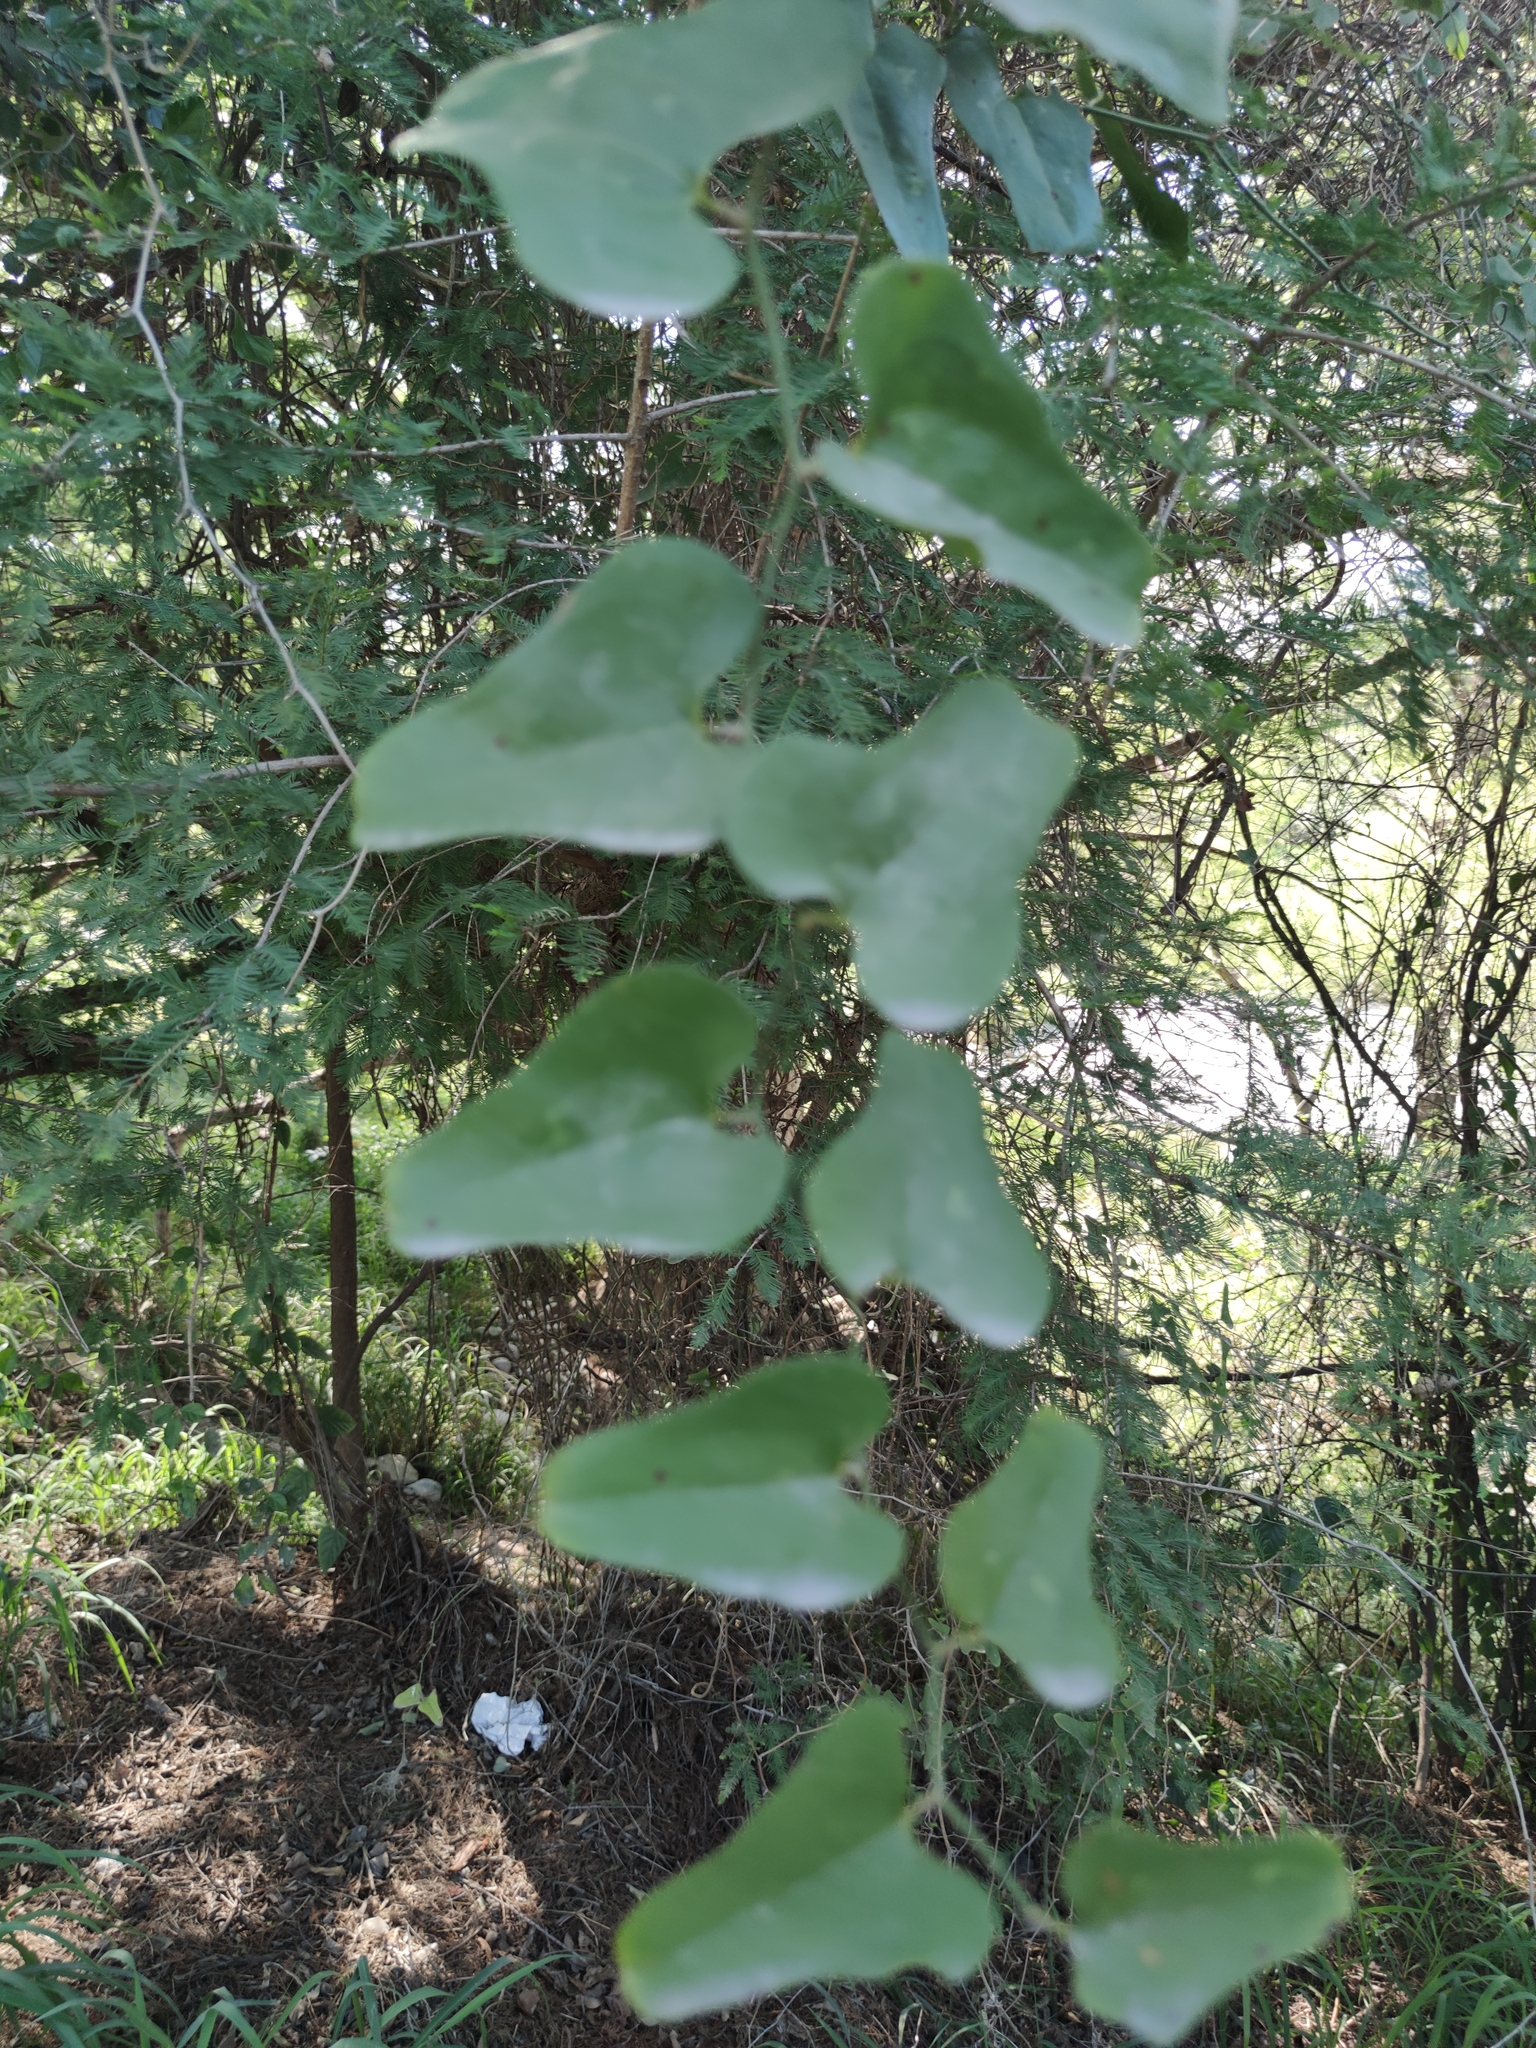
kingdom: Plantae
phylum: Tracheophyta
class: Magnoliopsida
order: Ranunculales
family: Menispermaceae
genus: Cocculus
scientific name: Cocculus diversifolius
